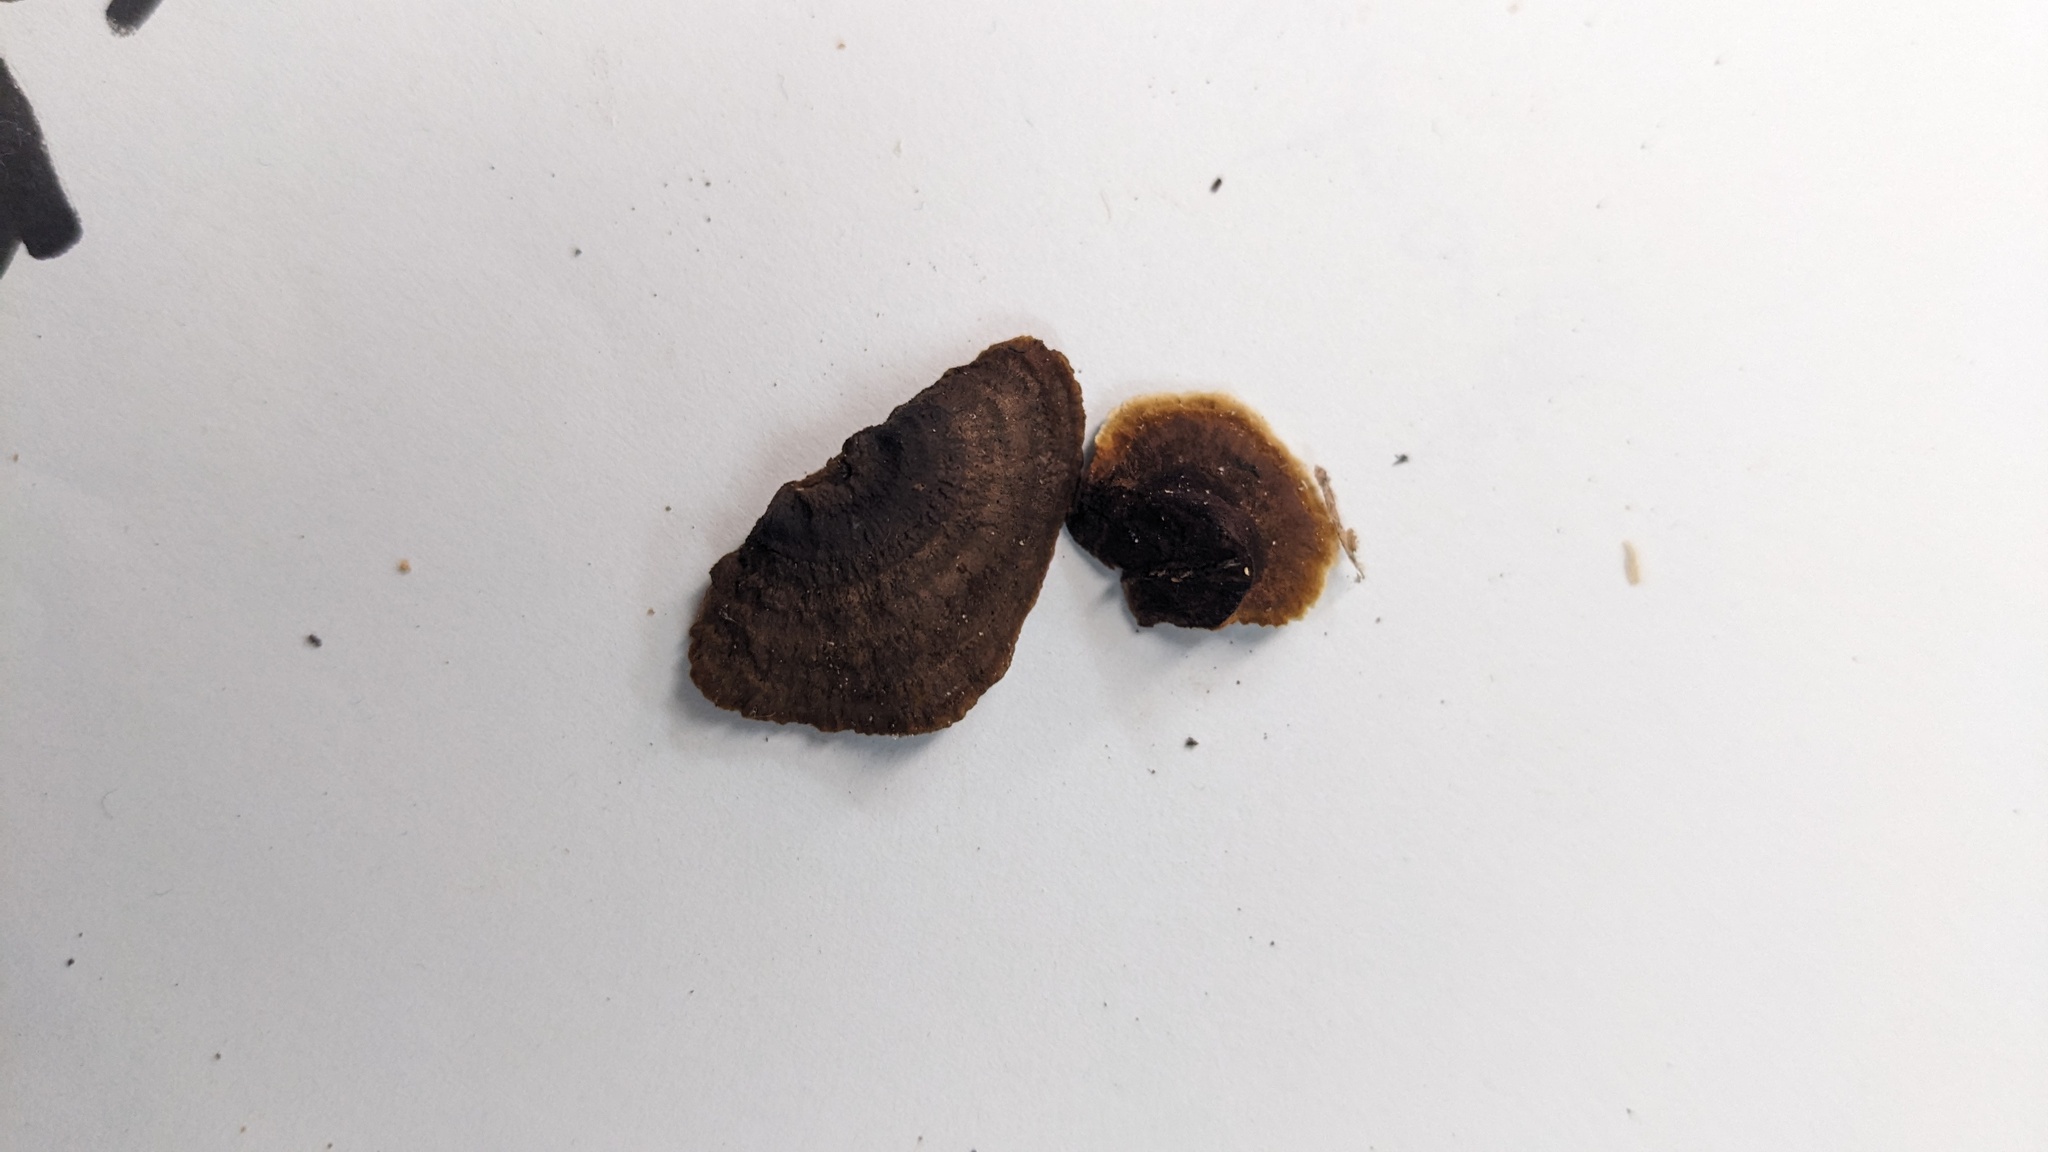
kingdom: Fungi
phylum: Basidiomycota
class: Agaricomycetes
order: Gloeophyllales
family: Gloeophyllaceae
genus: Gloeophyllum
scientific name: Gloeophyllum sepiarium
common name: Conifer mazegill
